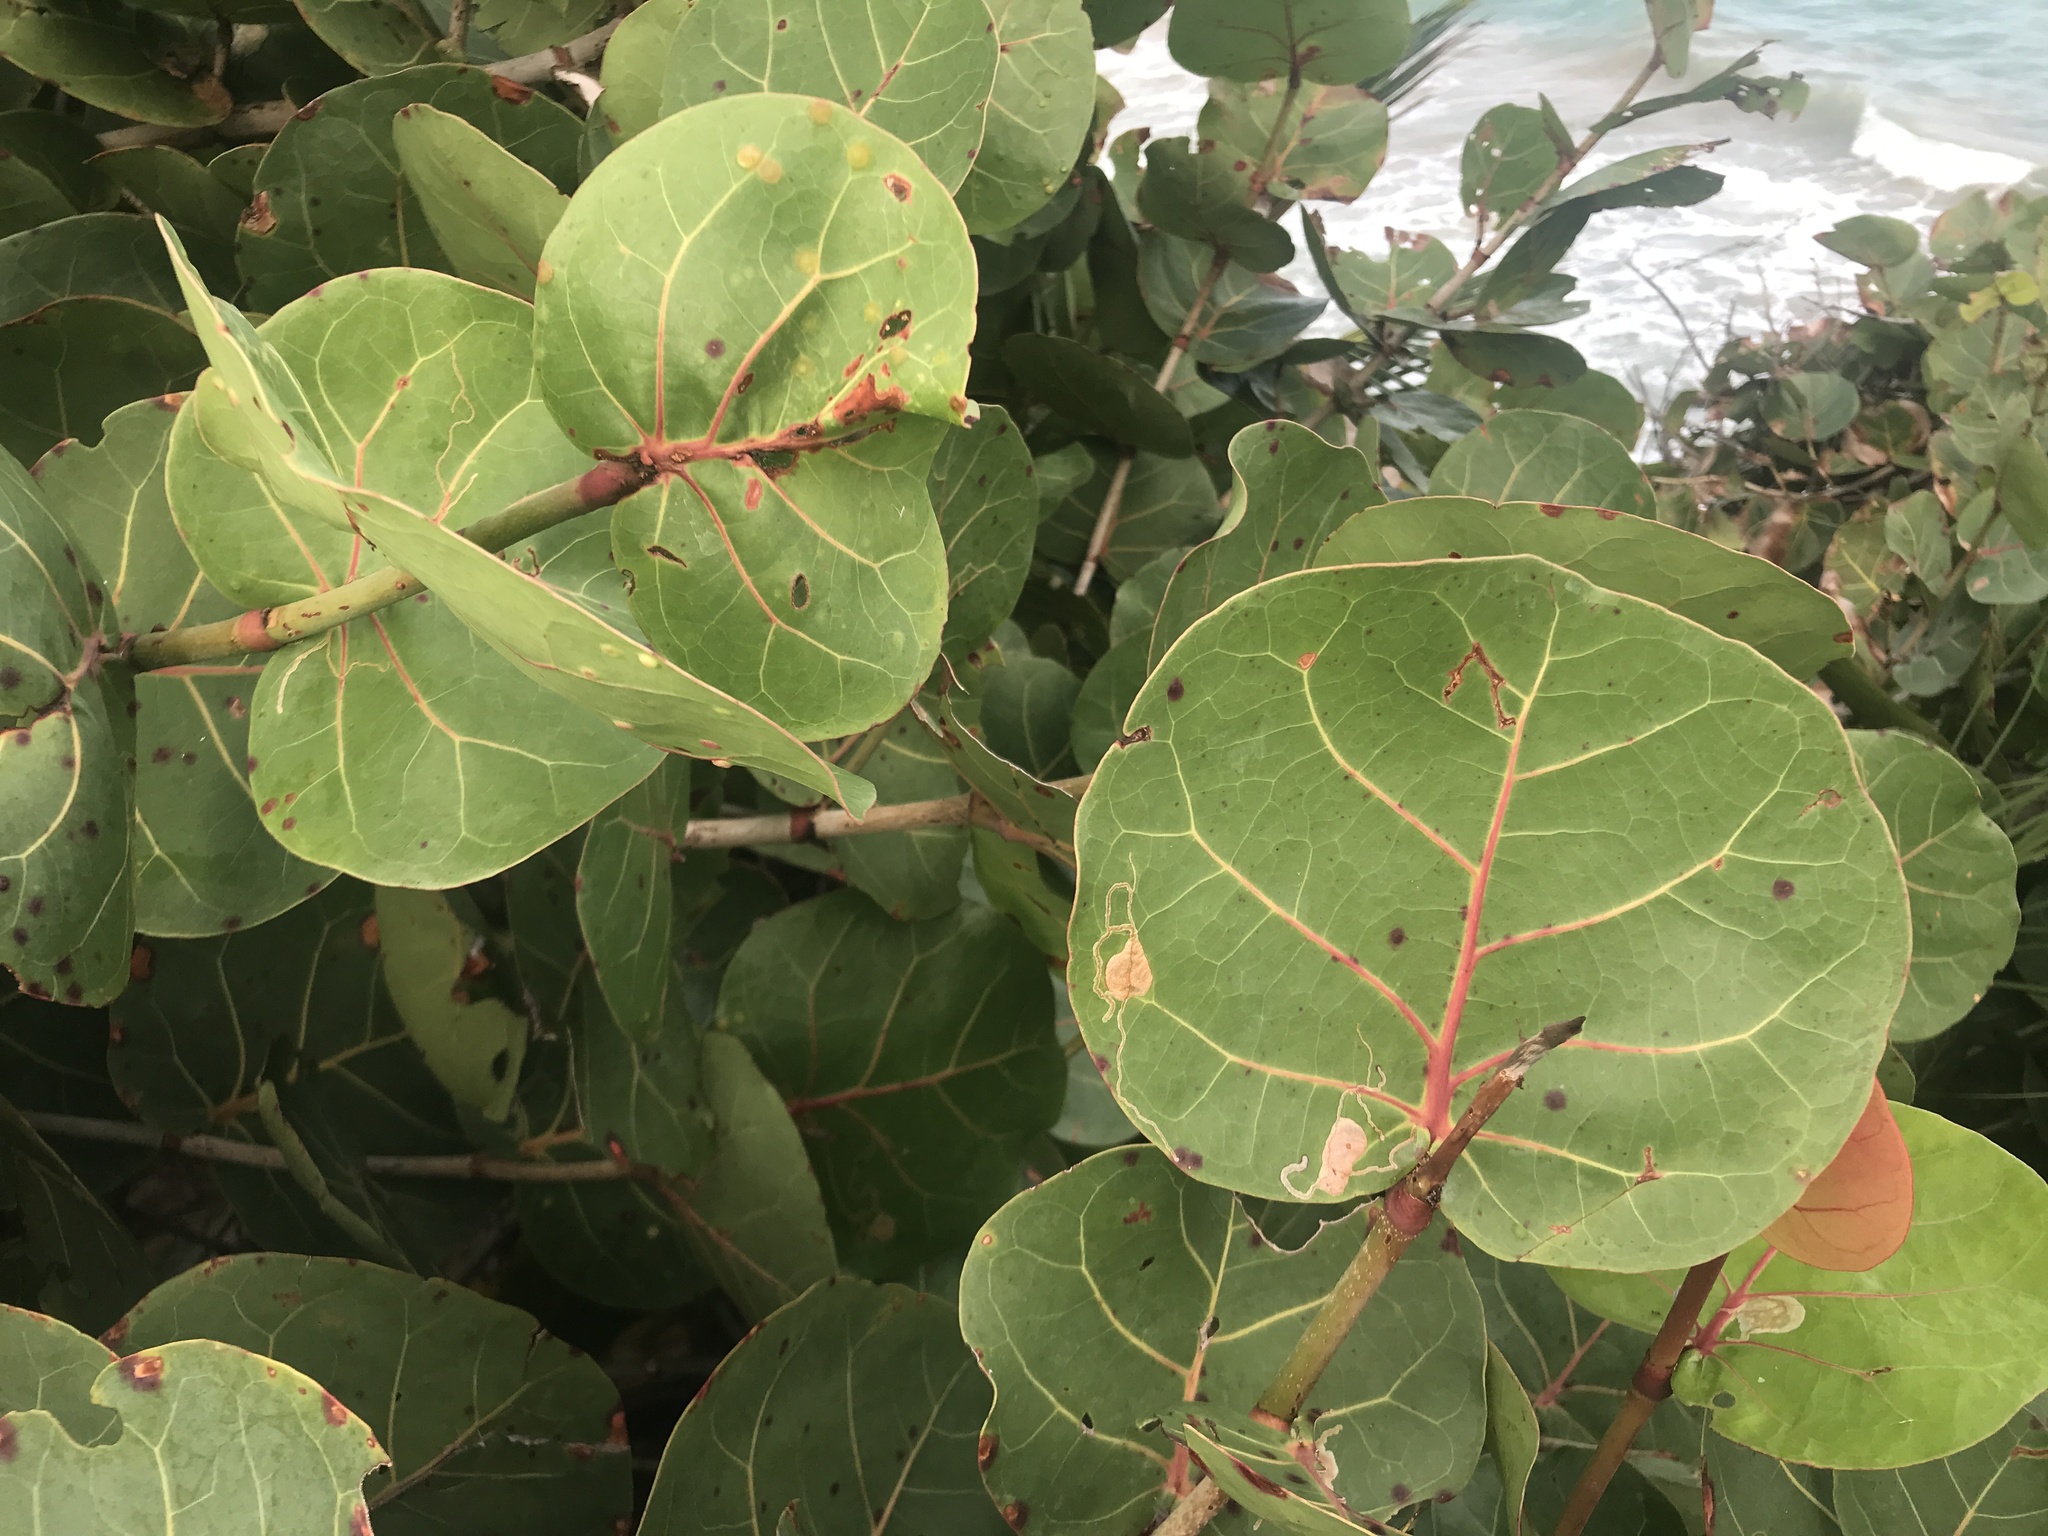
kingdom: Plantae
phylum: Tracheophyta
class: Magnoliopsida
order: Caryophyllales
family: Polygonaceae
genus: Coccoloba
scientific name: Coccoloba uvifera
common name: Seagrape
